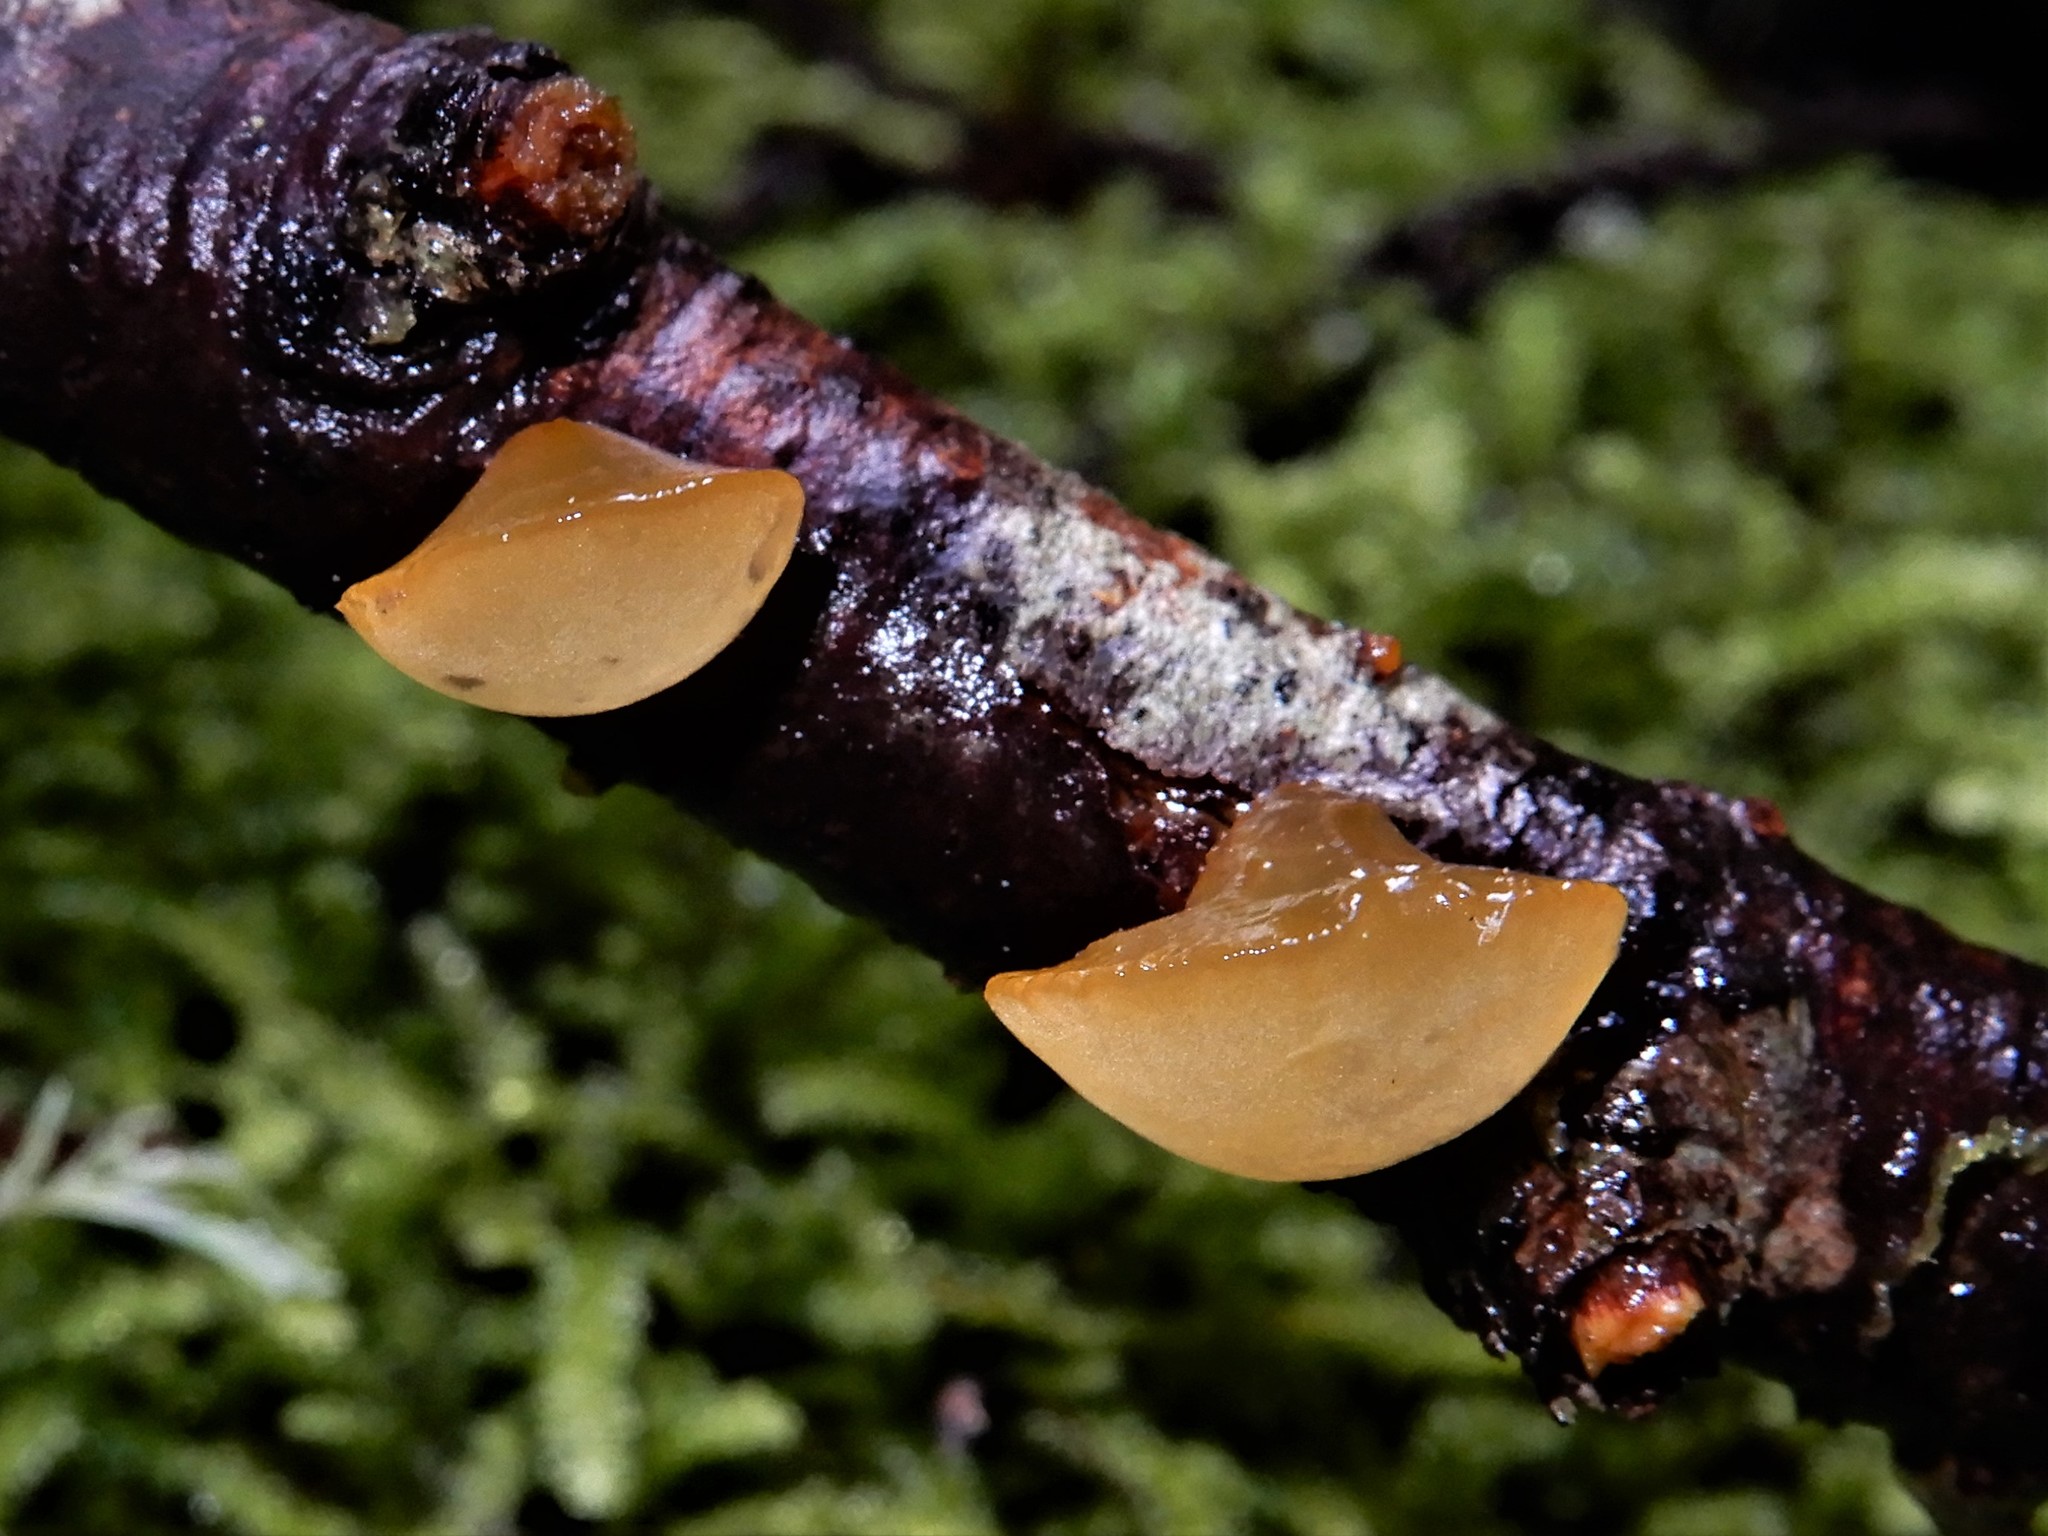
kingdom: Fungi
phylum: Basidiomycota
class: Dacrymycetes
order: Dacrymycetales
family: Dacrymycetaceae
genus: Heterotextus
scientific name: Heterotextus miltinus
